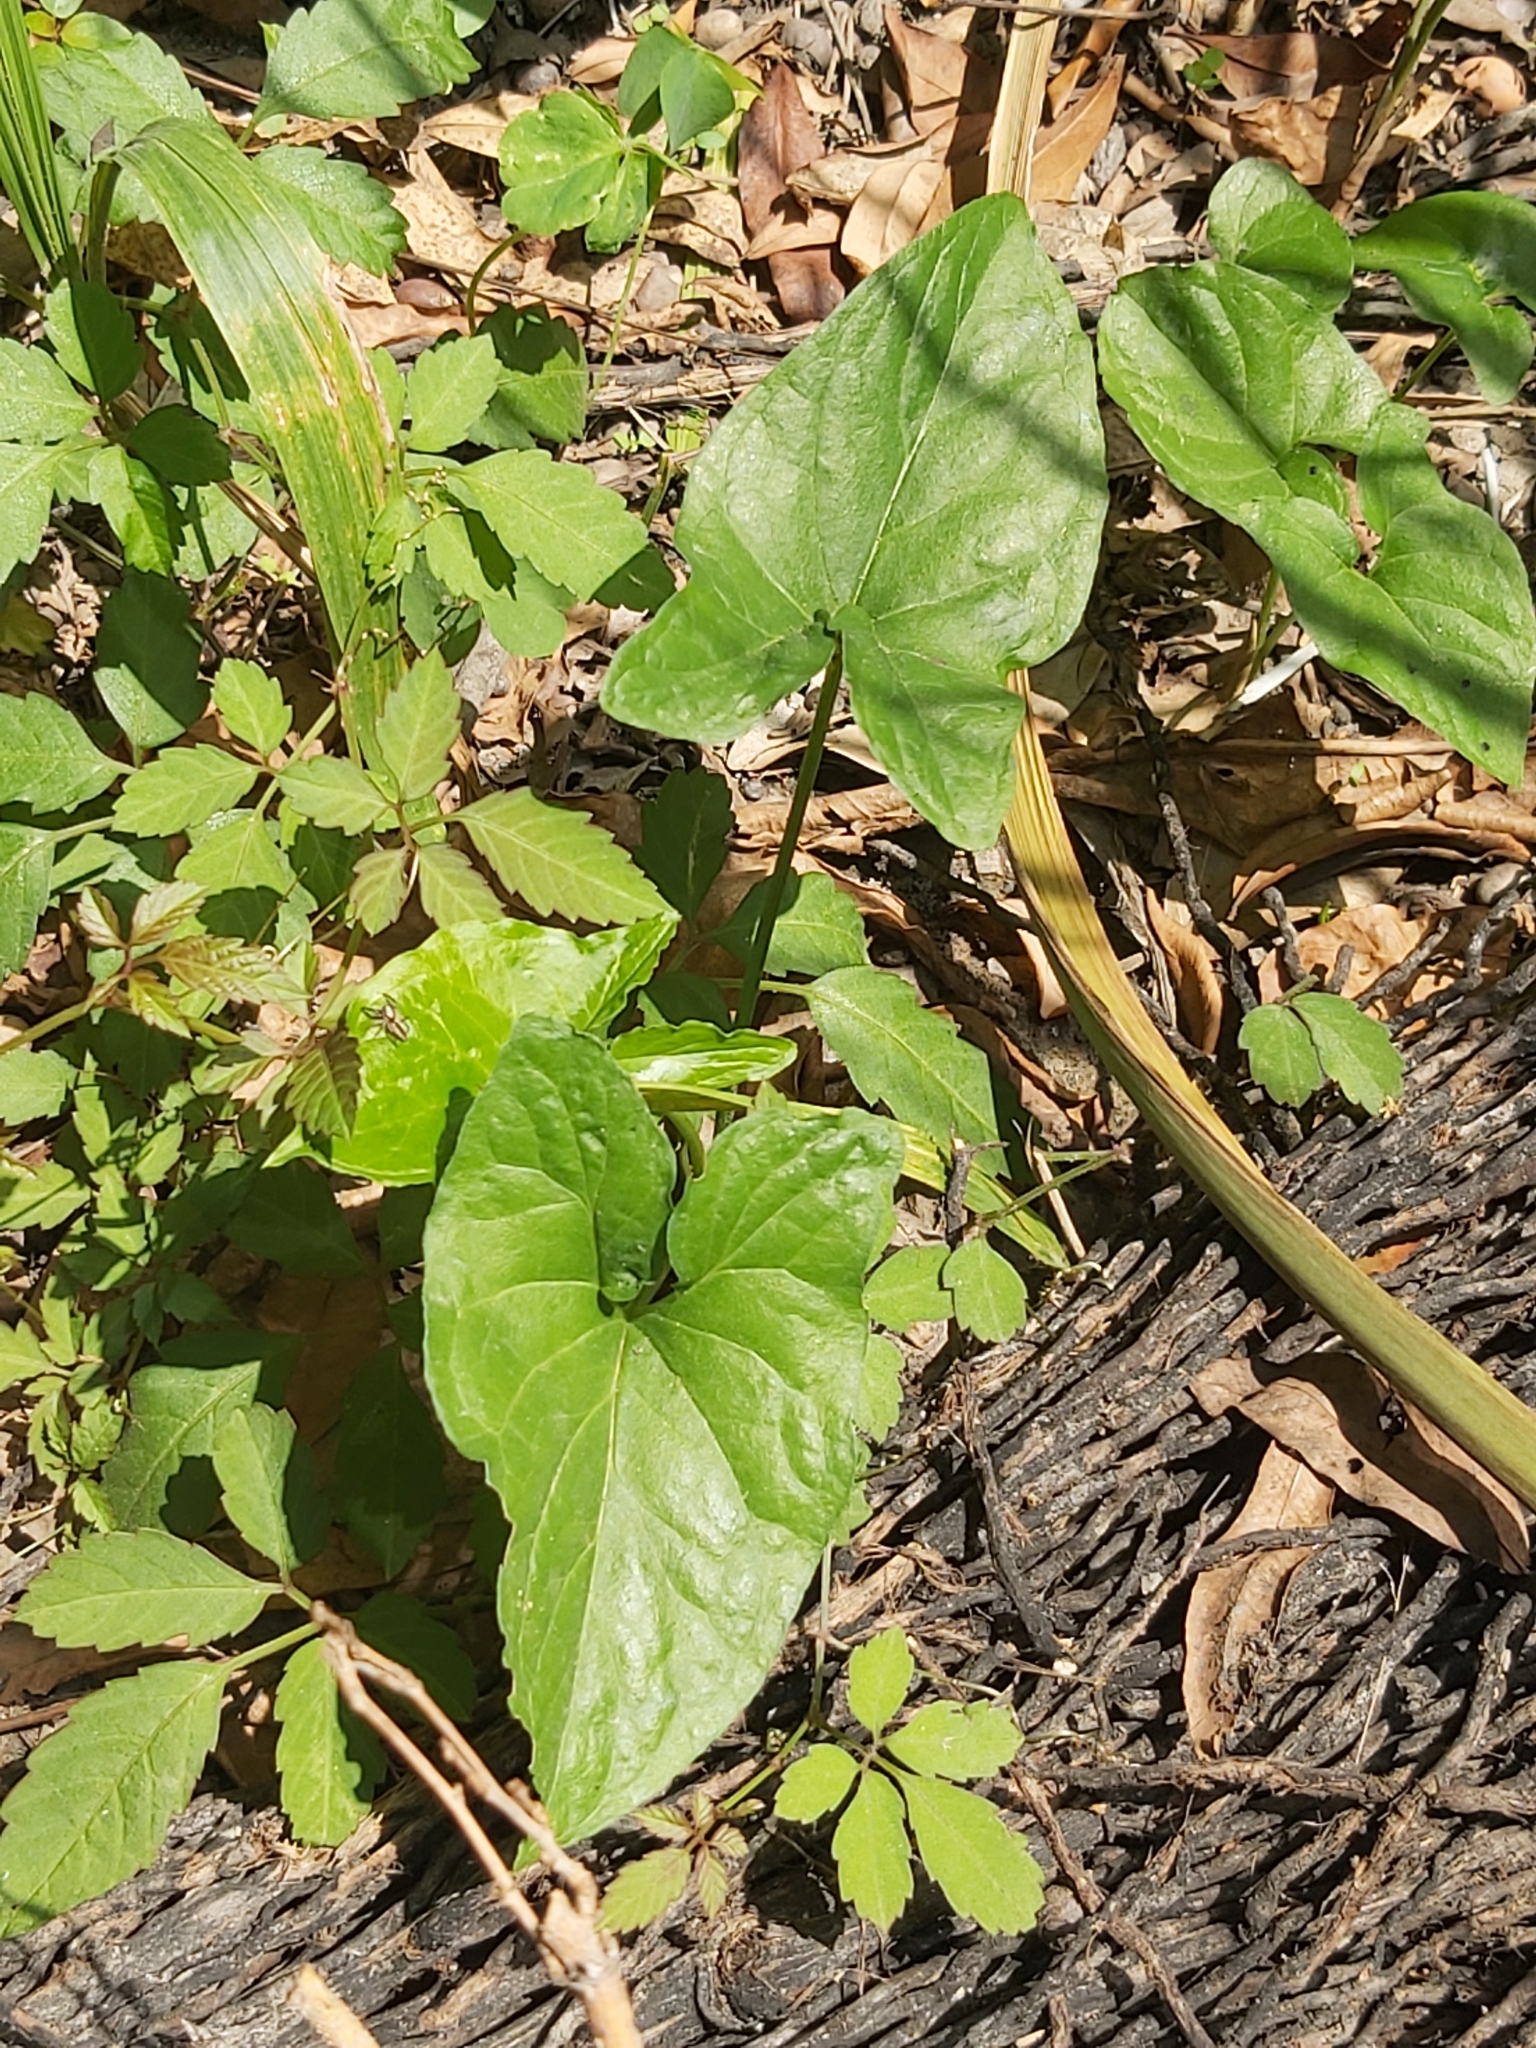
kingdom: Plantae
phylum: Tracheophyta
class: Liliopsida
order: Alismatales
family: Araceae
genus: Typhonium
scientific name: Typhonium blumei
